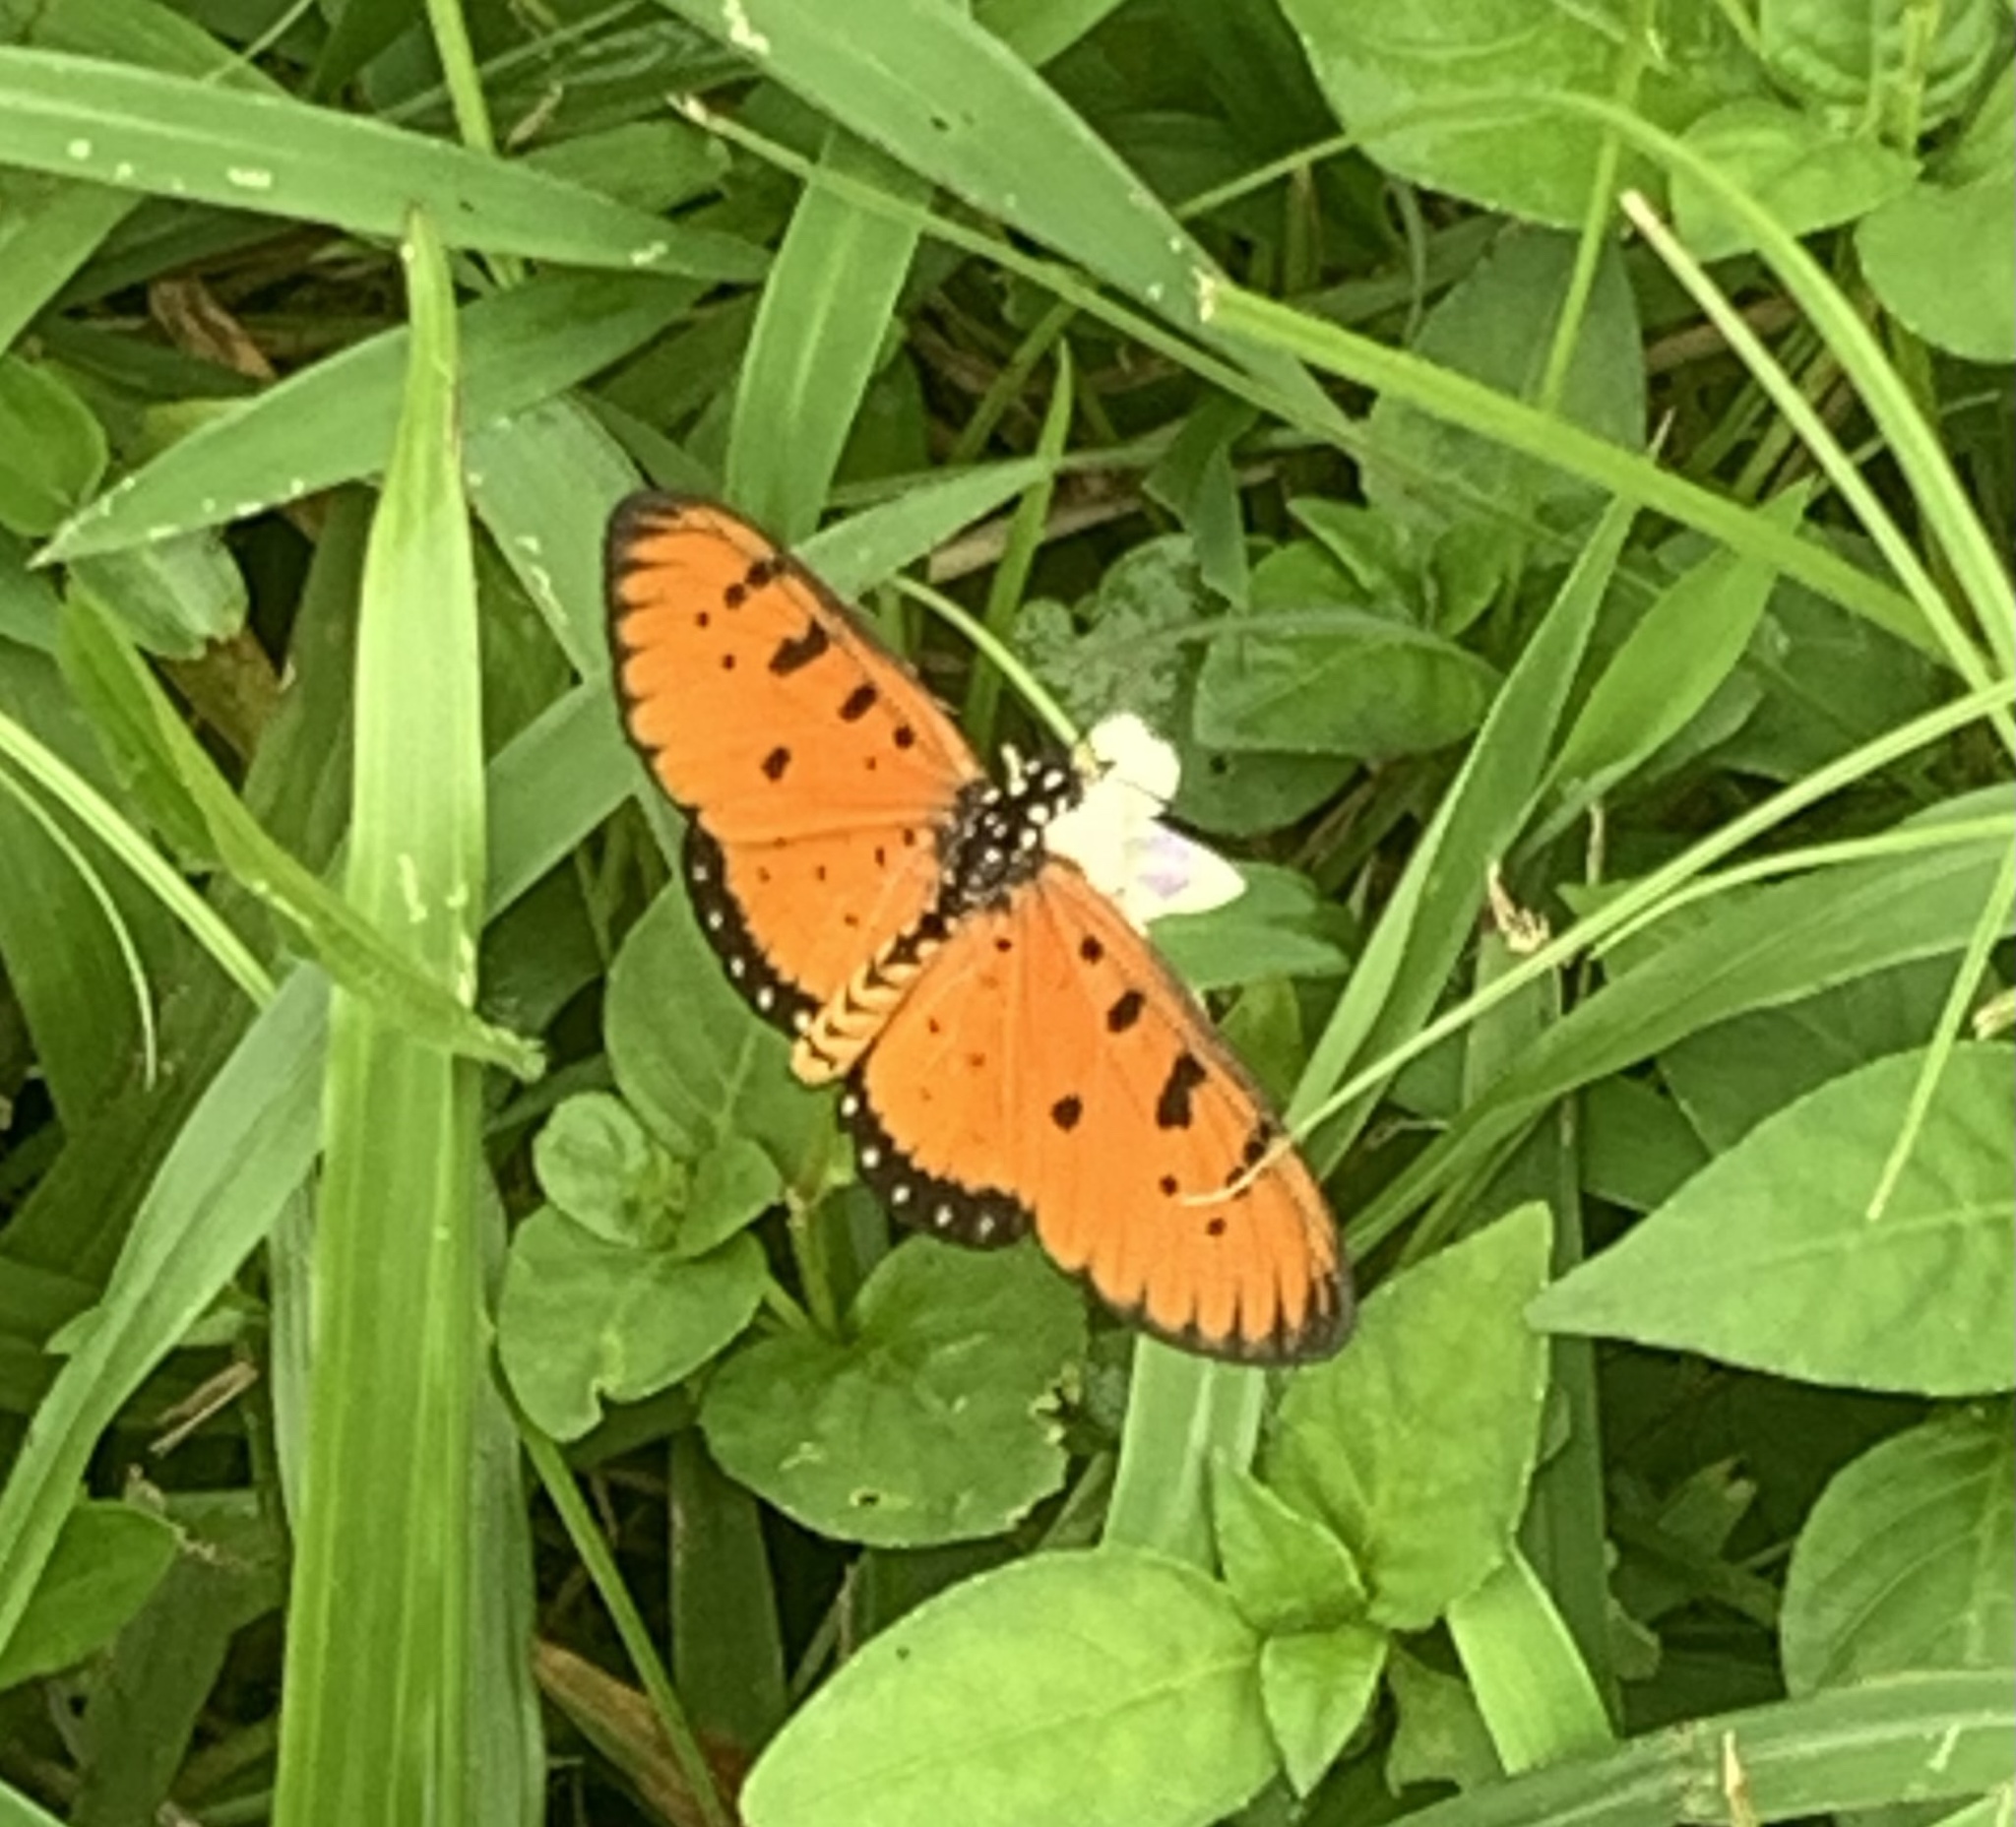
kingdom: Animalia
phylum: Arthropoda
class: Insecta
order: Lepidoptera
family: Nymphalidae
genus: Acraea
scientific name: Acraea terpsicore
